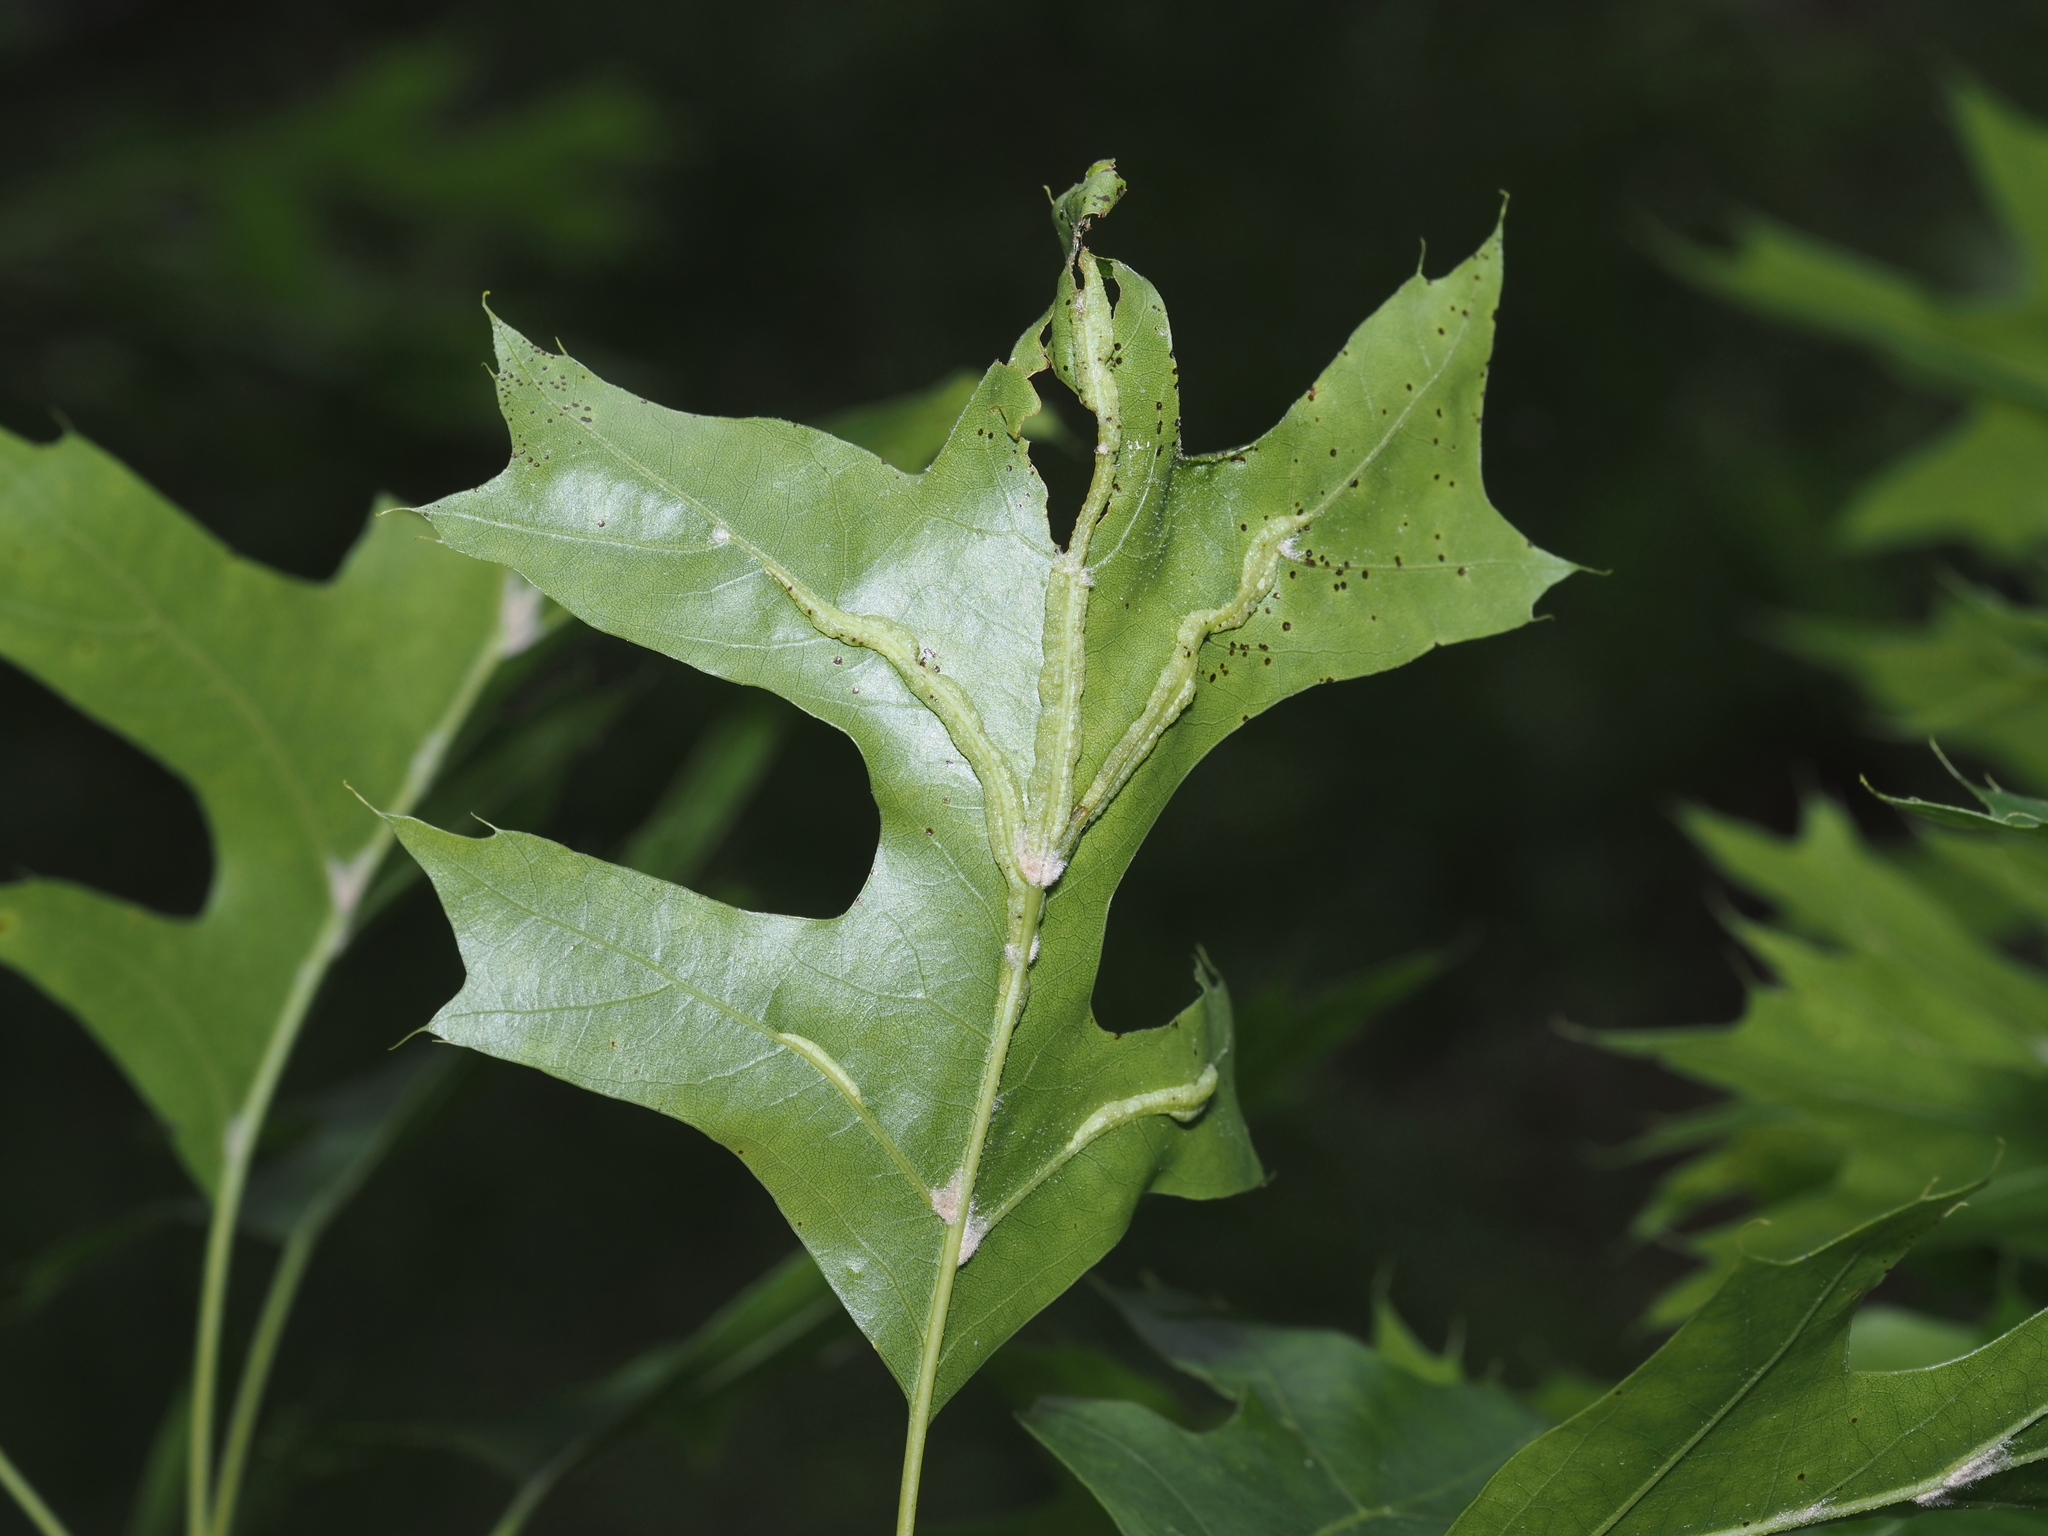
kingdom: Animalia
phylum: Arthropoda
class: Insecta
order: Diptera
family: Cecidomyiidae
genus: Macrodiplosis
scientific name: Macrodiplosis q-orucum
